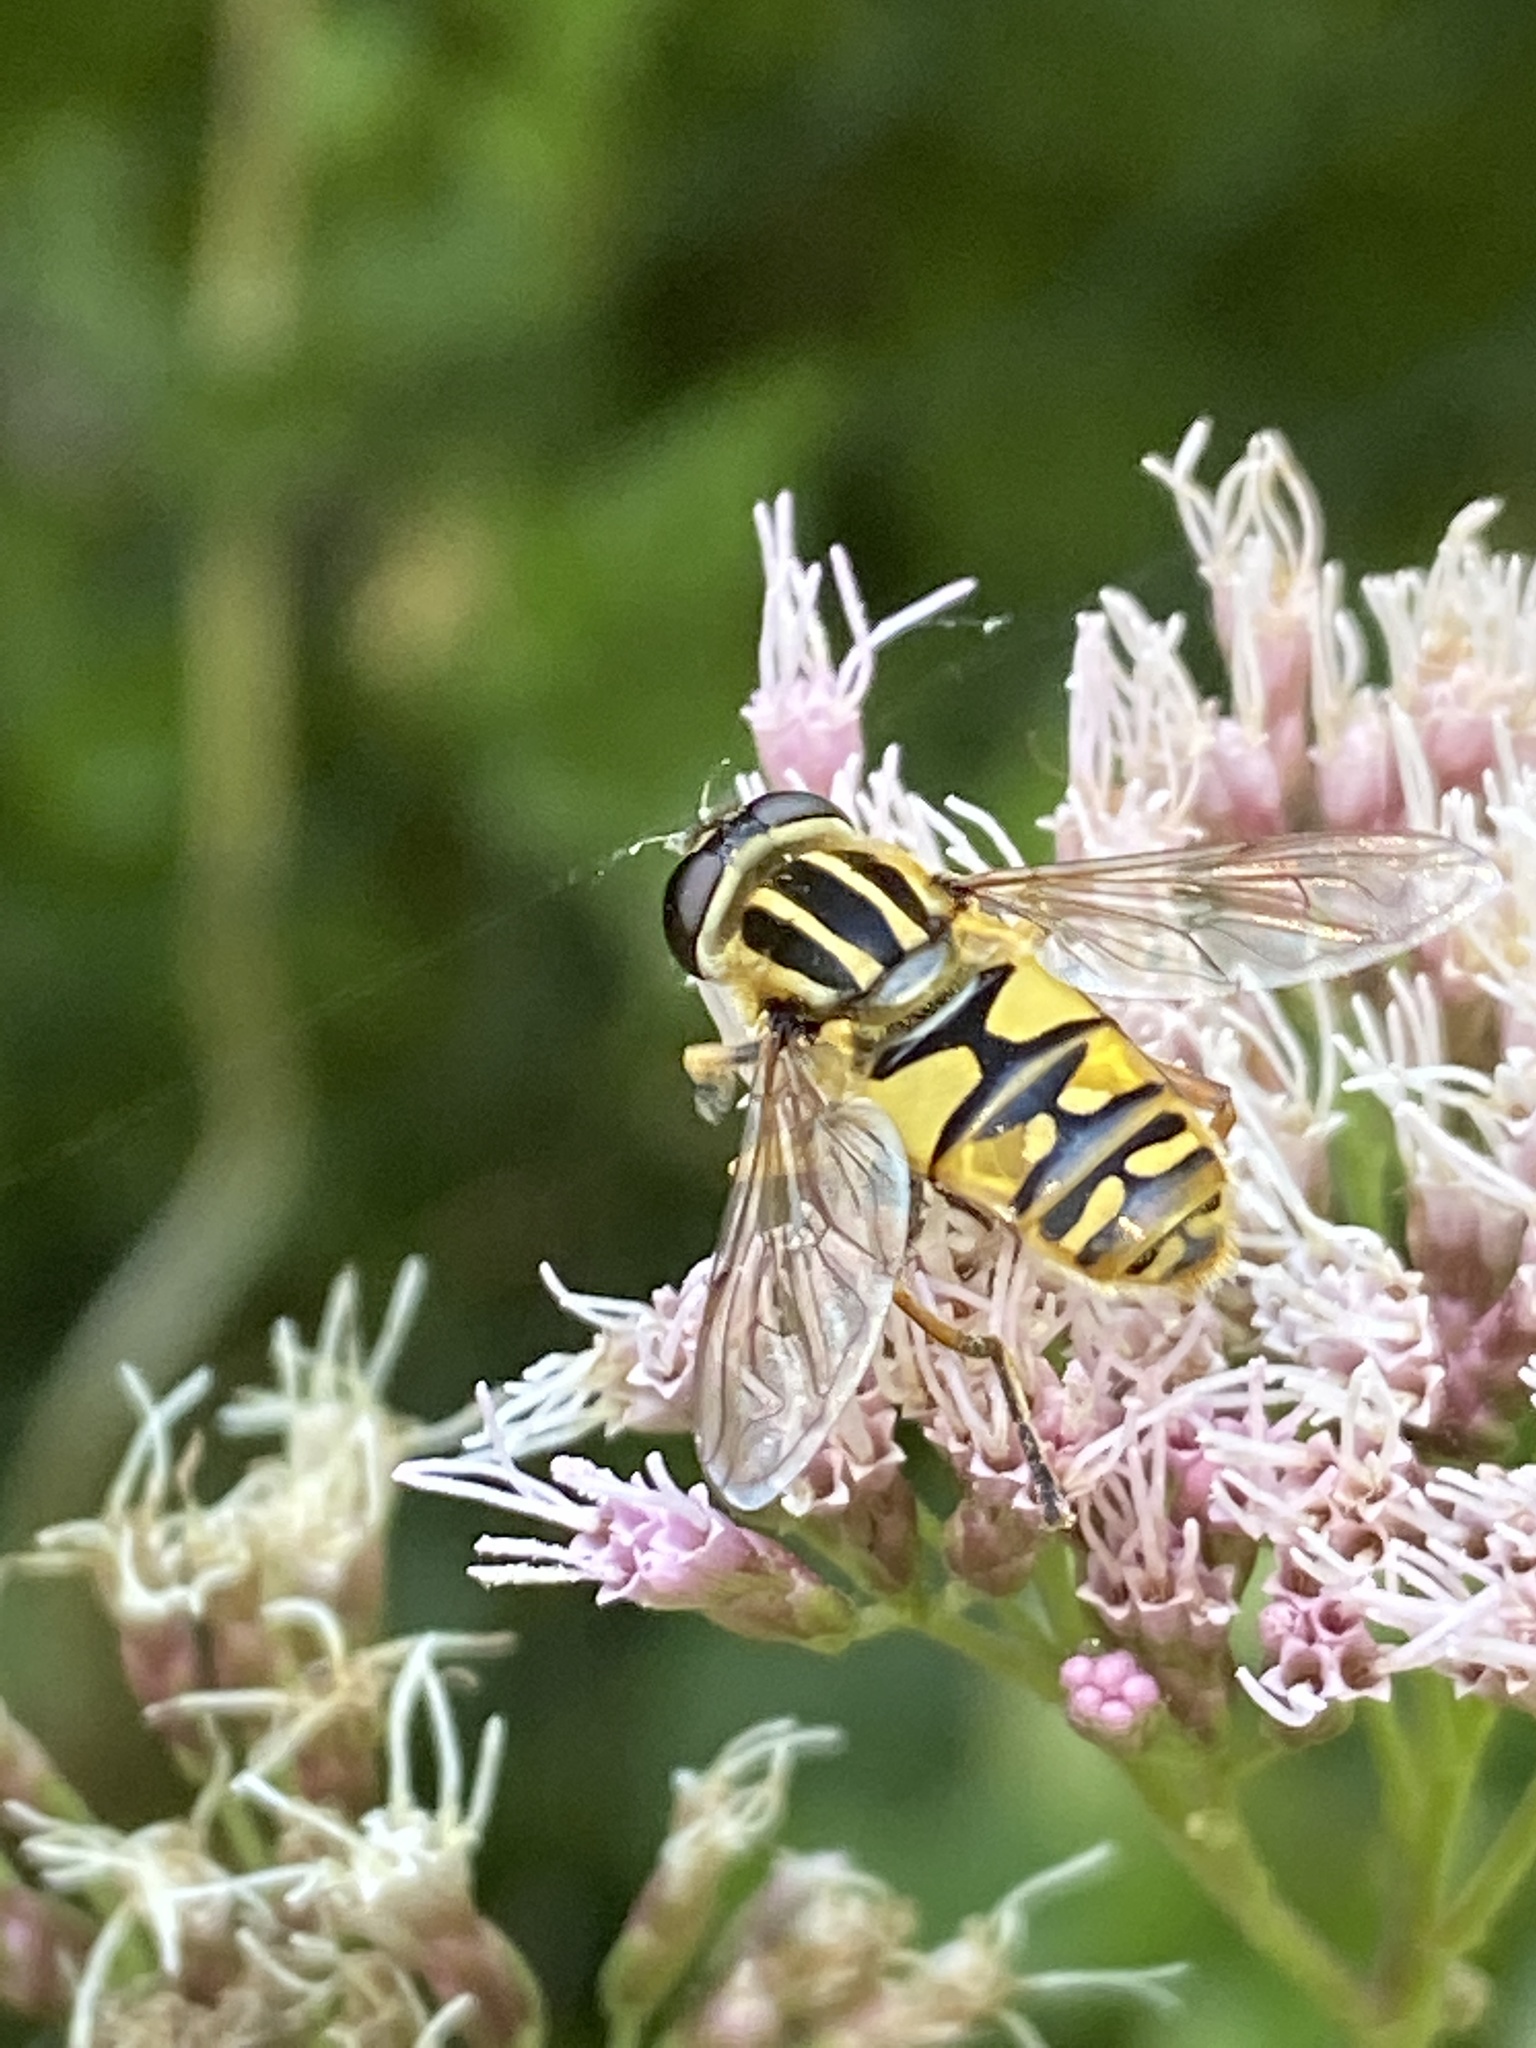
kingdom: Animalia
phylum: Arthropoda
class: Insecta
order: Diptera
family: Syrphidae
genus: Helophilus
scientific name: Helophilus pendulus
